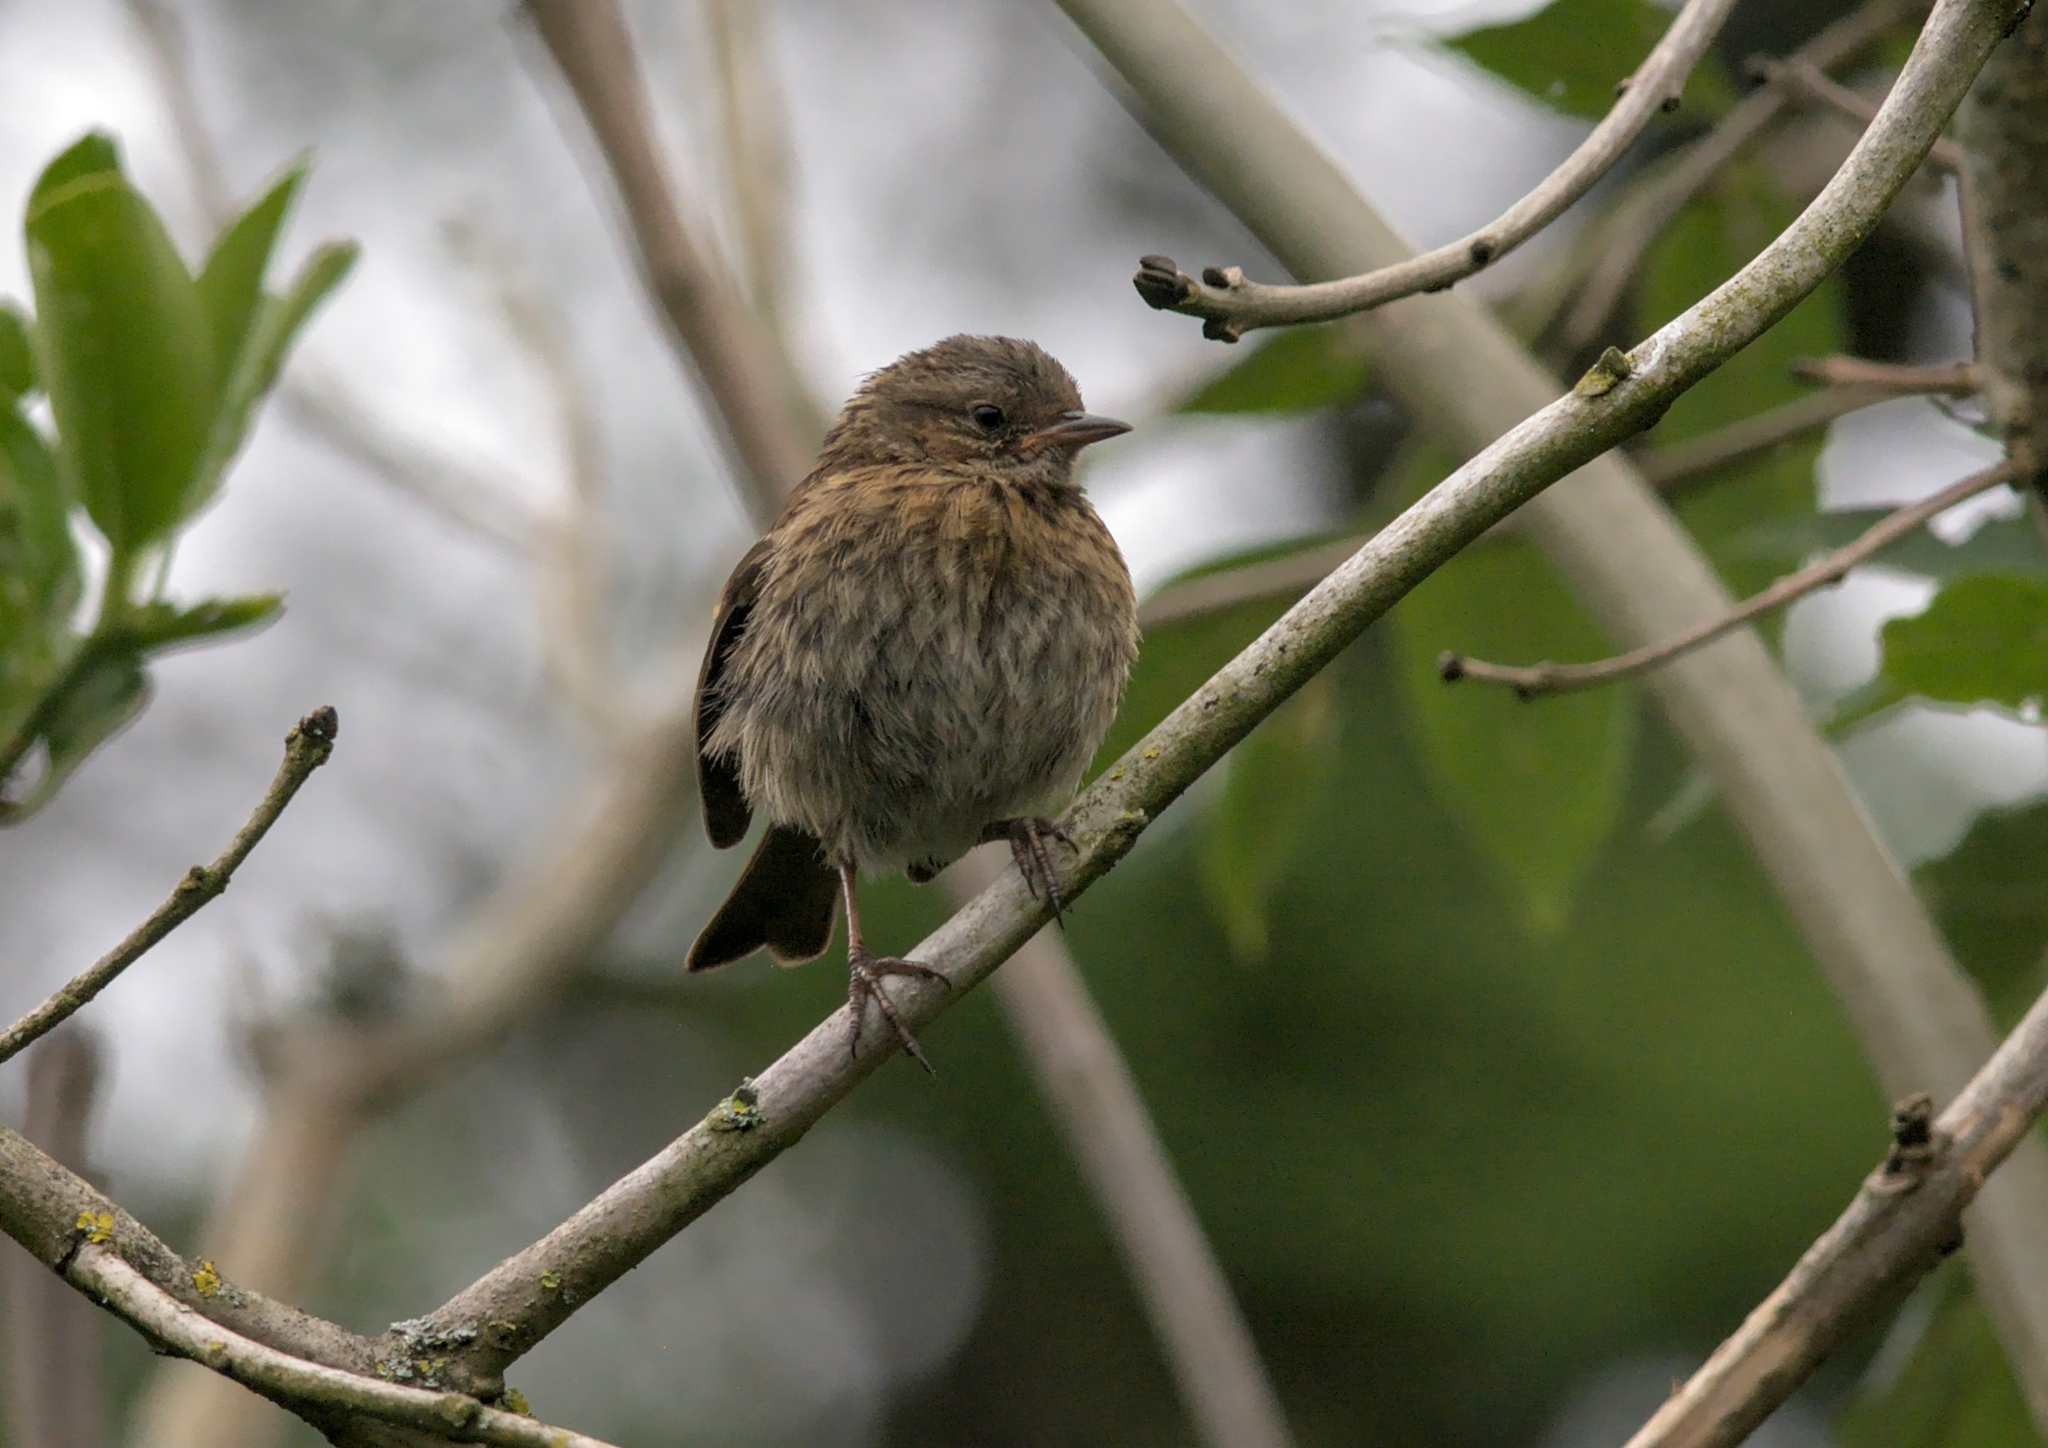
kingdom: Animalia
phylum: Chordata
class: Aves
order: Passeriformes
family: Prunellidae
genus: Prunella
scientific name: Prunella modularis
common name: Dunnock
